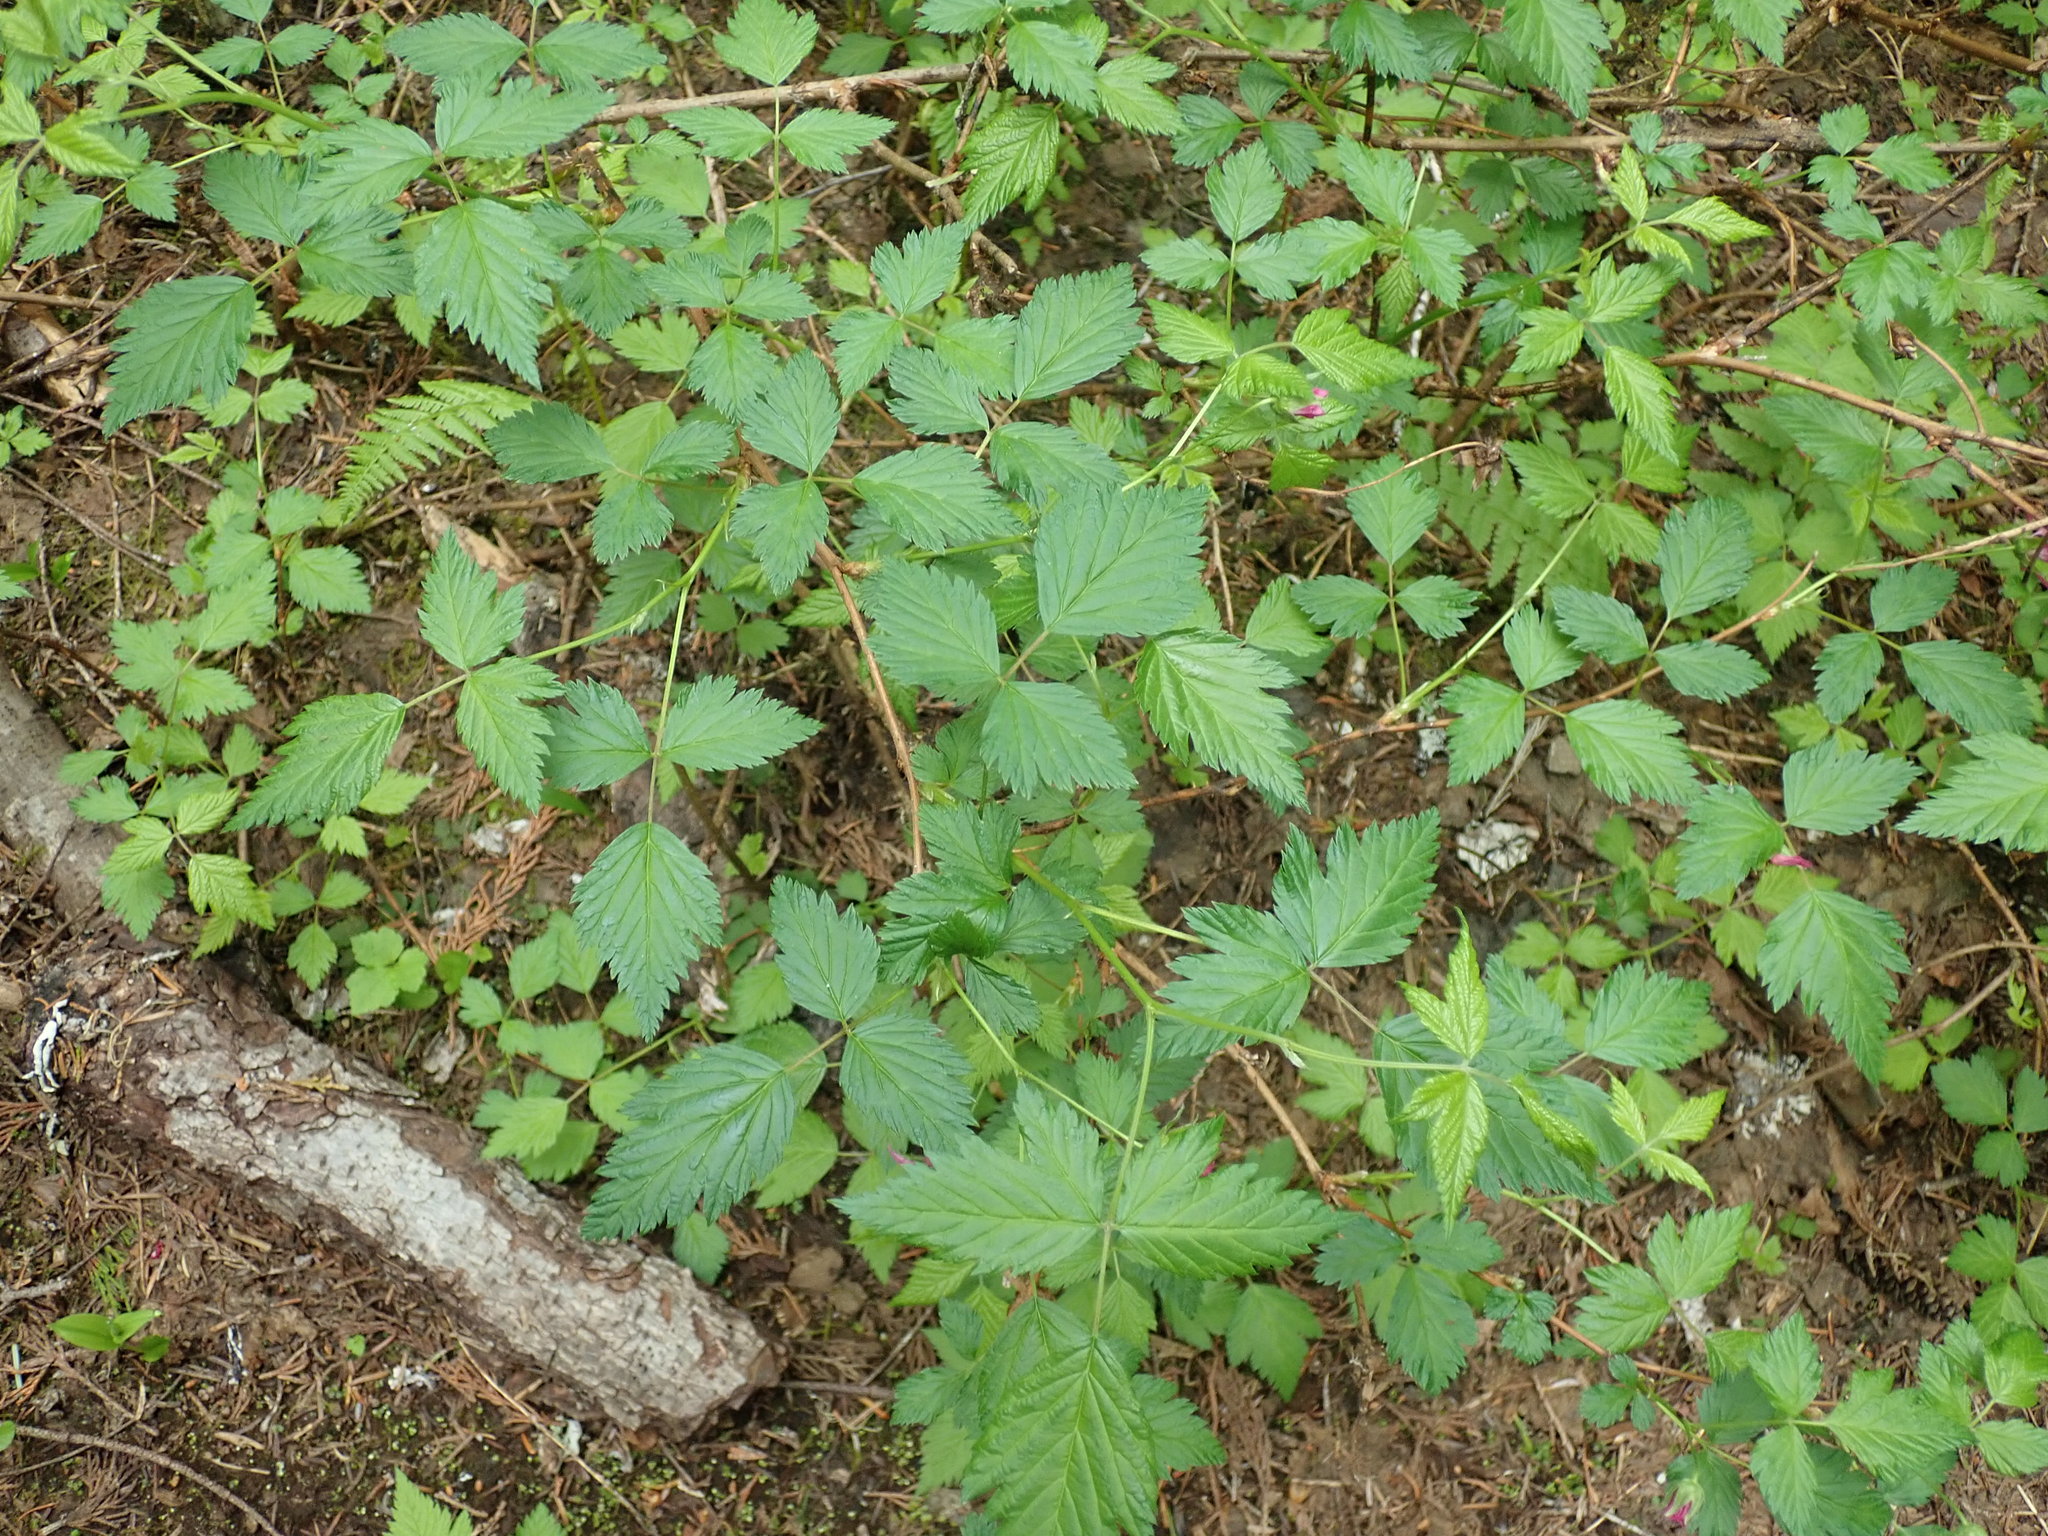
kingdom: Plantae
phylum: Tracheophyta
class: Magnoliopsida
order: Rosales
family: Rosaceae
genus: Rubus
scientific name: Rubus spectabilis
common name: Salmonberry
